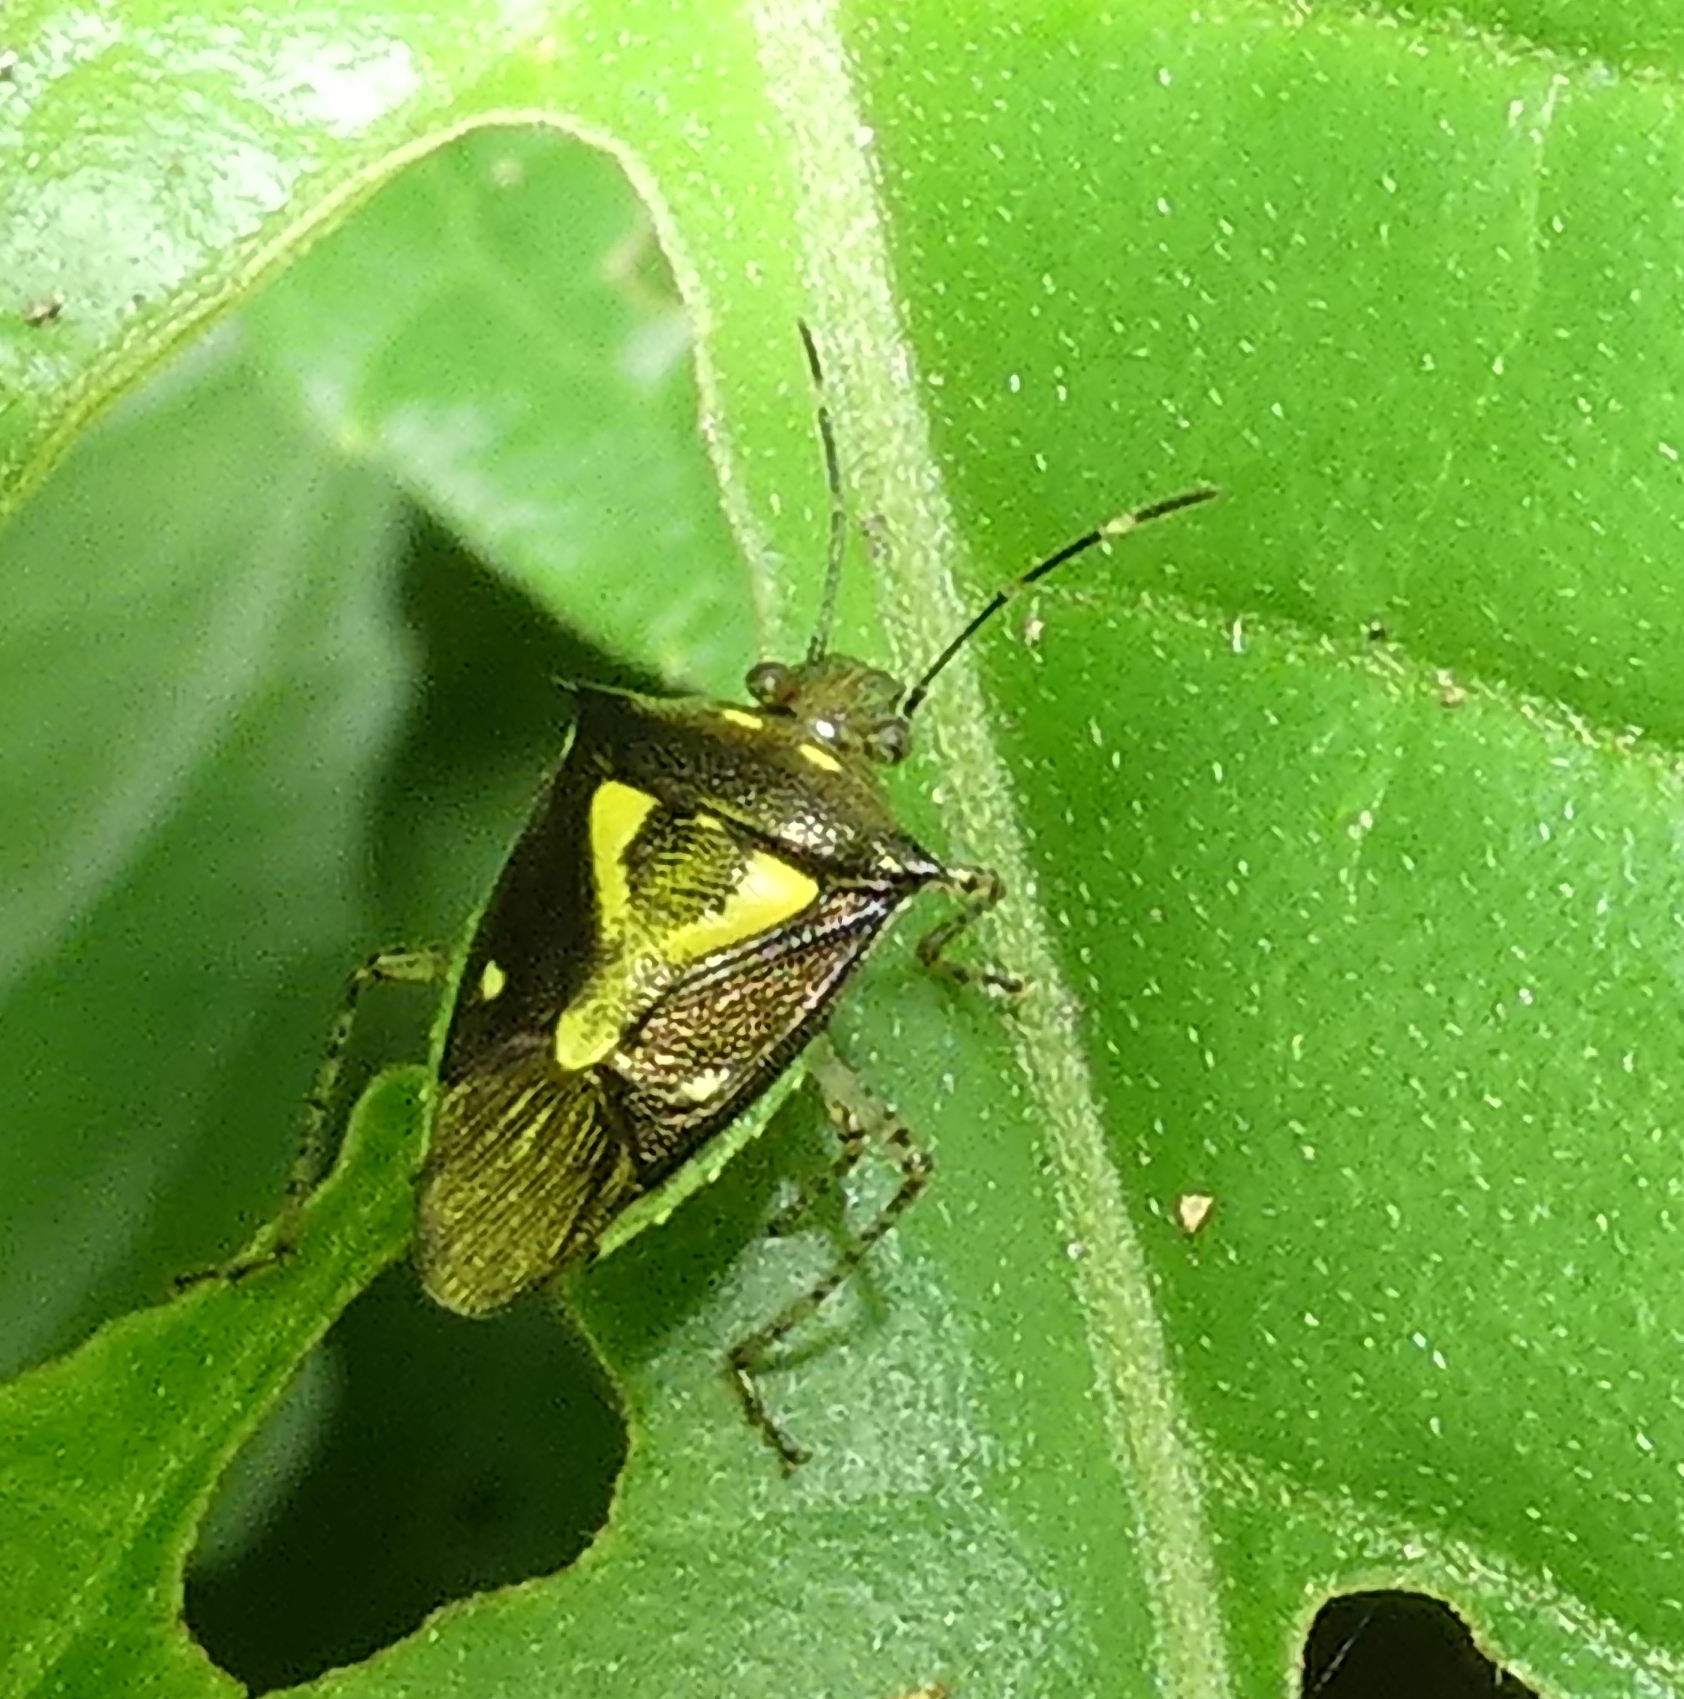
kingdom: Animalia
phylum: Arthropoda
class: Insecta
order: Hemiptera
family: Pentatomidae
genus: Mormidea
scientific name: Mormidea ypsilon
